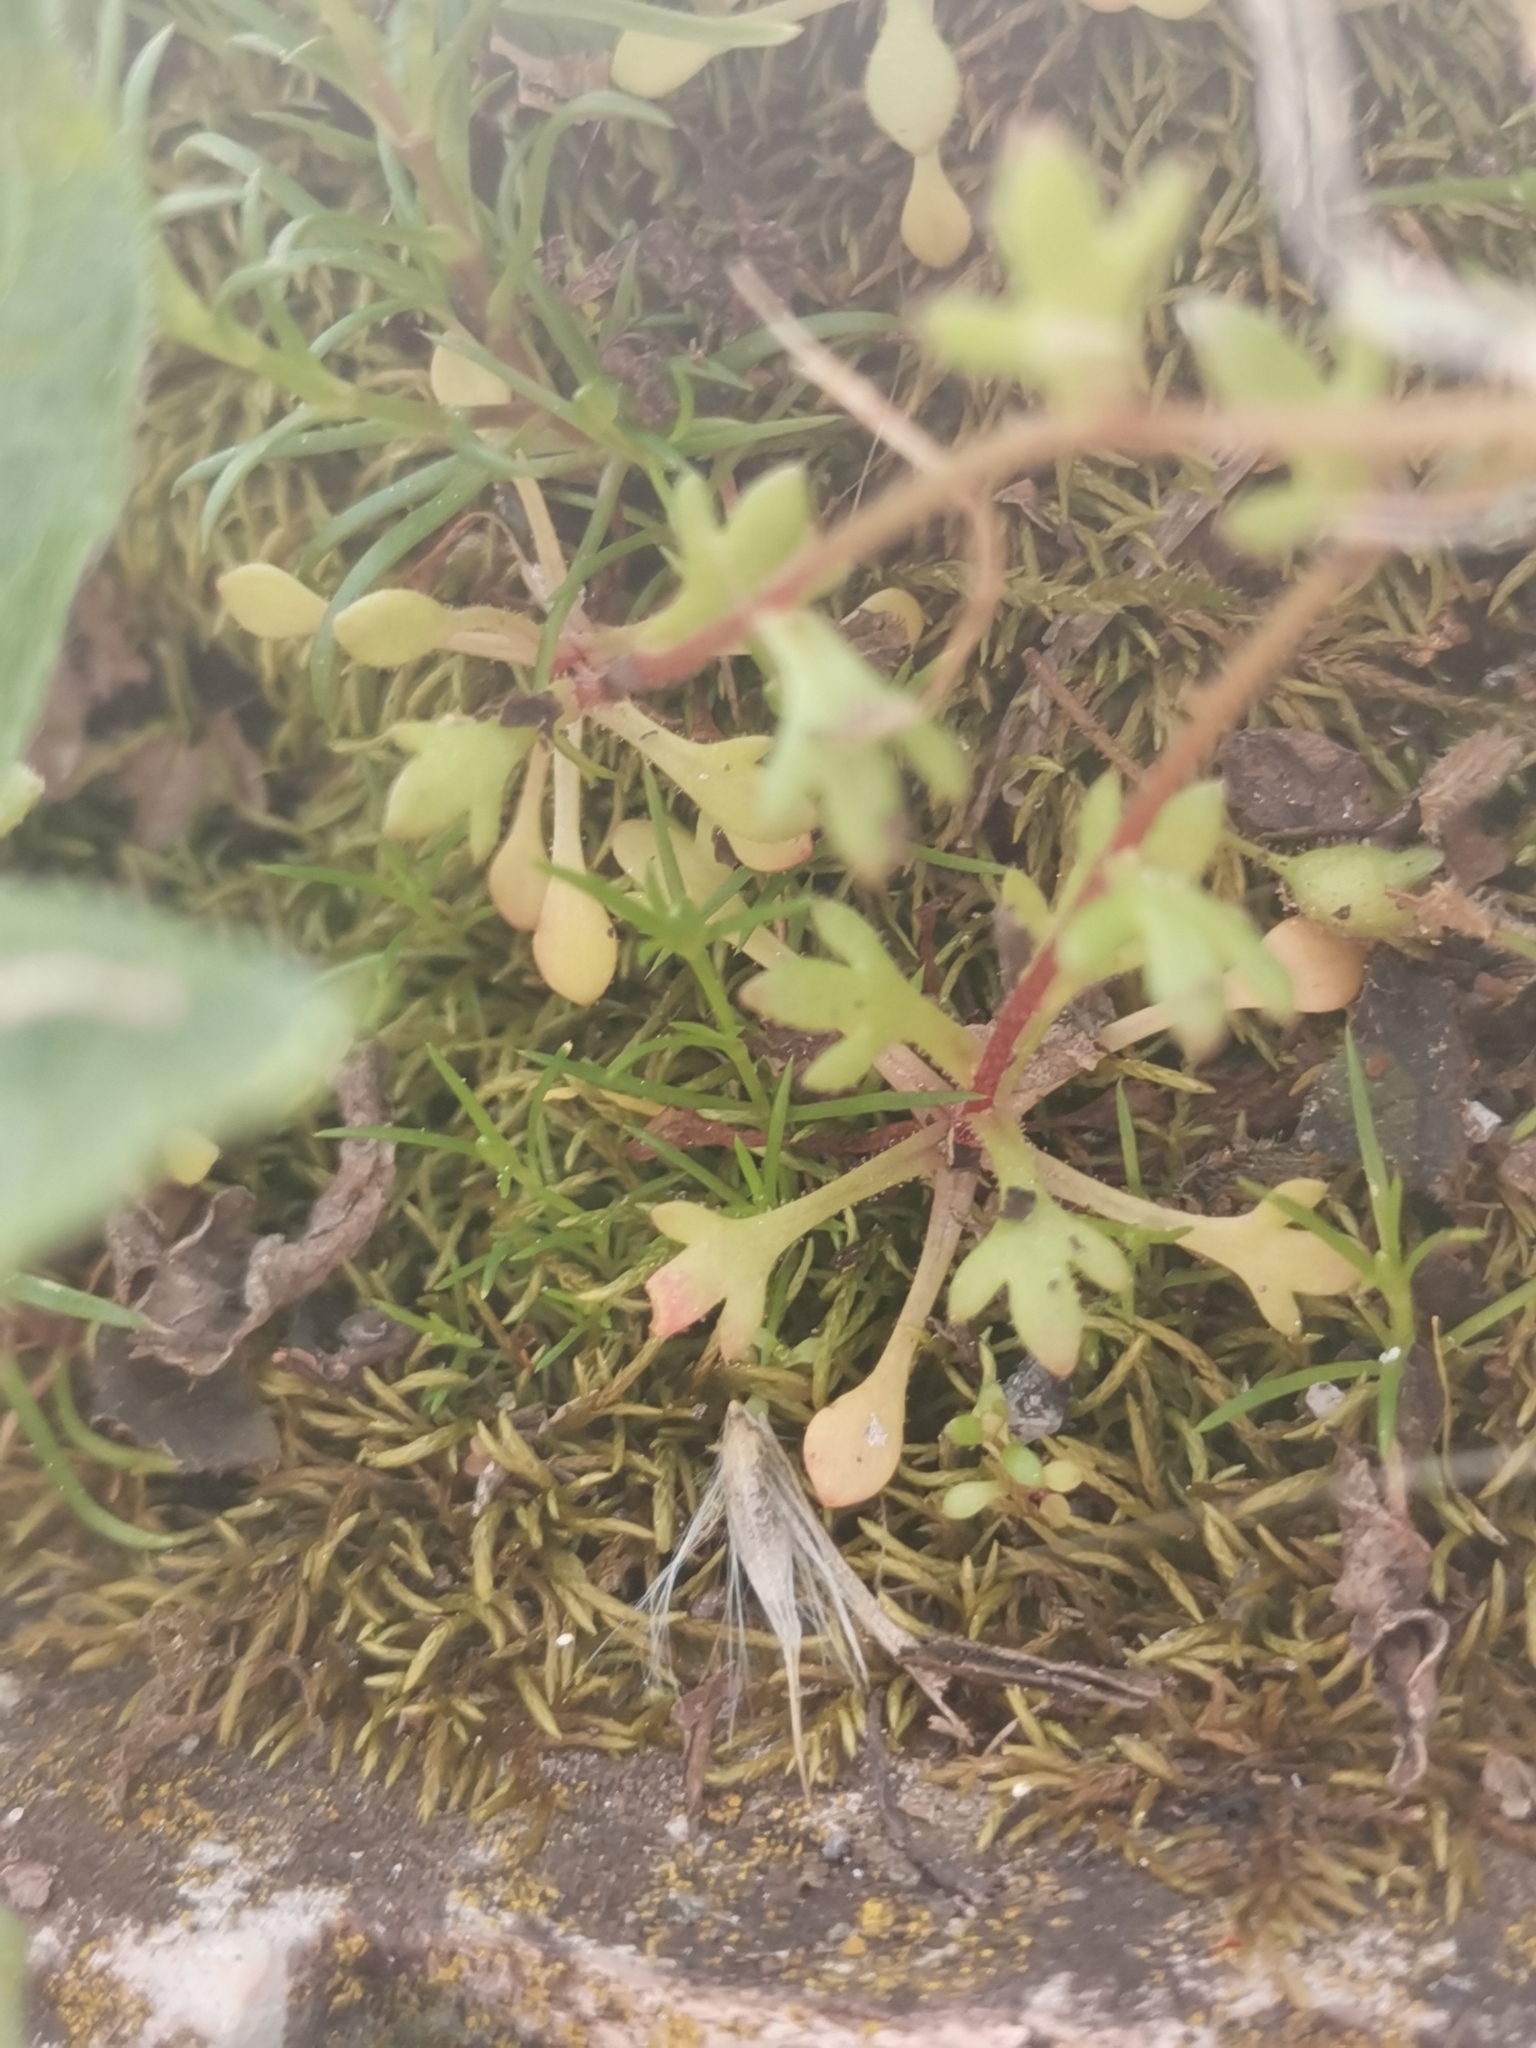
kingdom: Plantae
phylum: Tracheophyta
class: Magnoliopsida
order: Saxifragales
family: Saxifragaceae
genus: Saxifraga
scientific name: Saxifraga tridactylites
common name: Rue-leaved saxifrage
